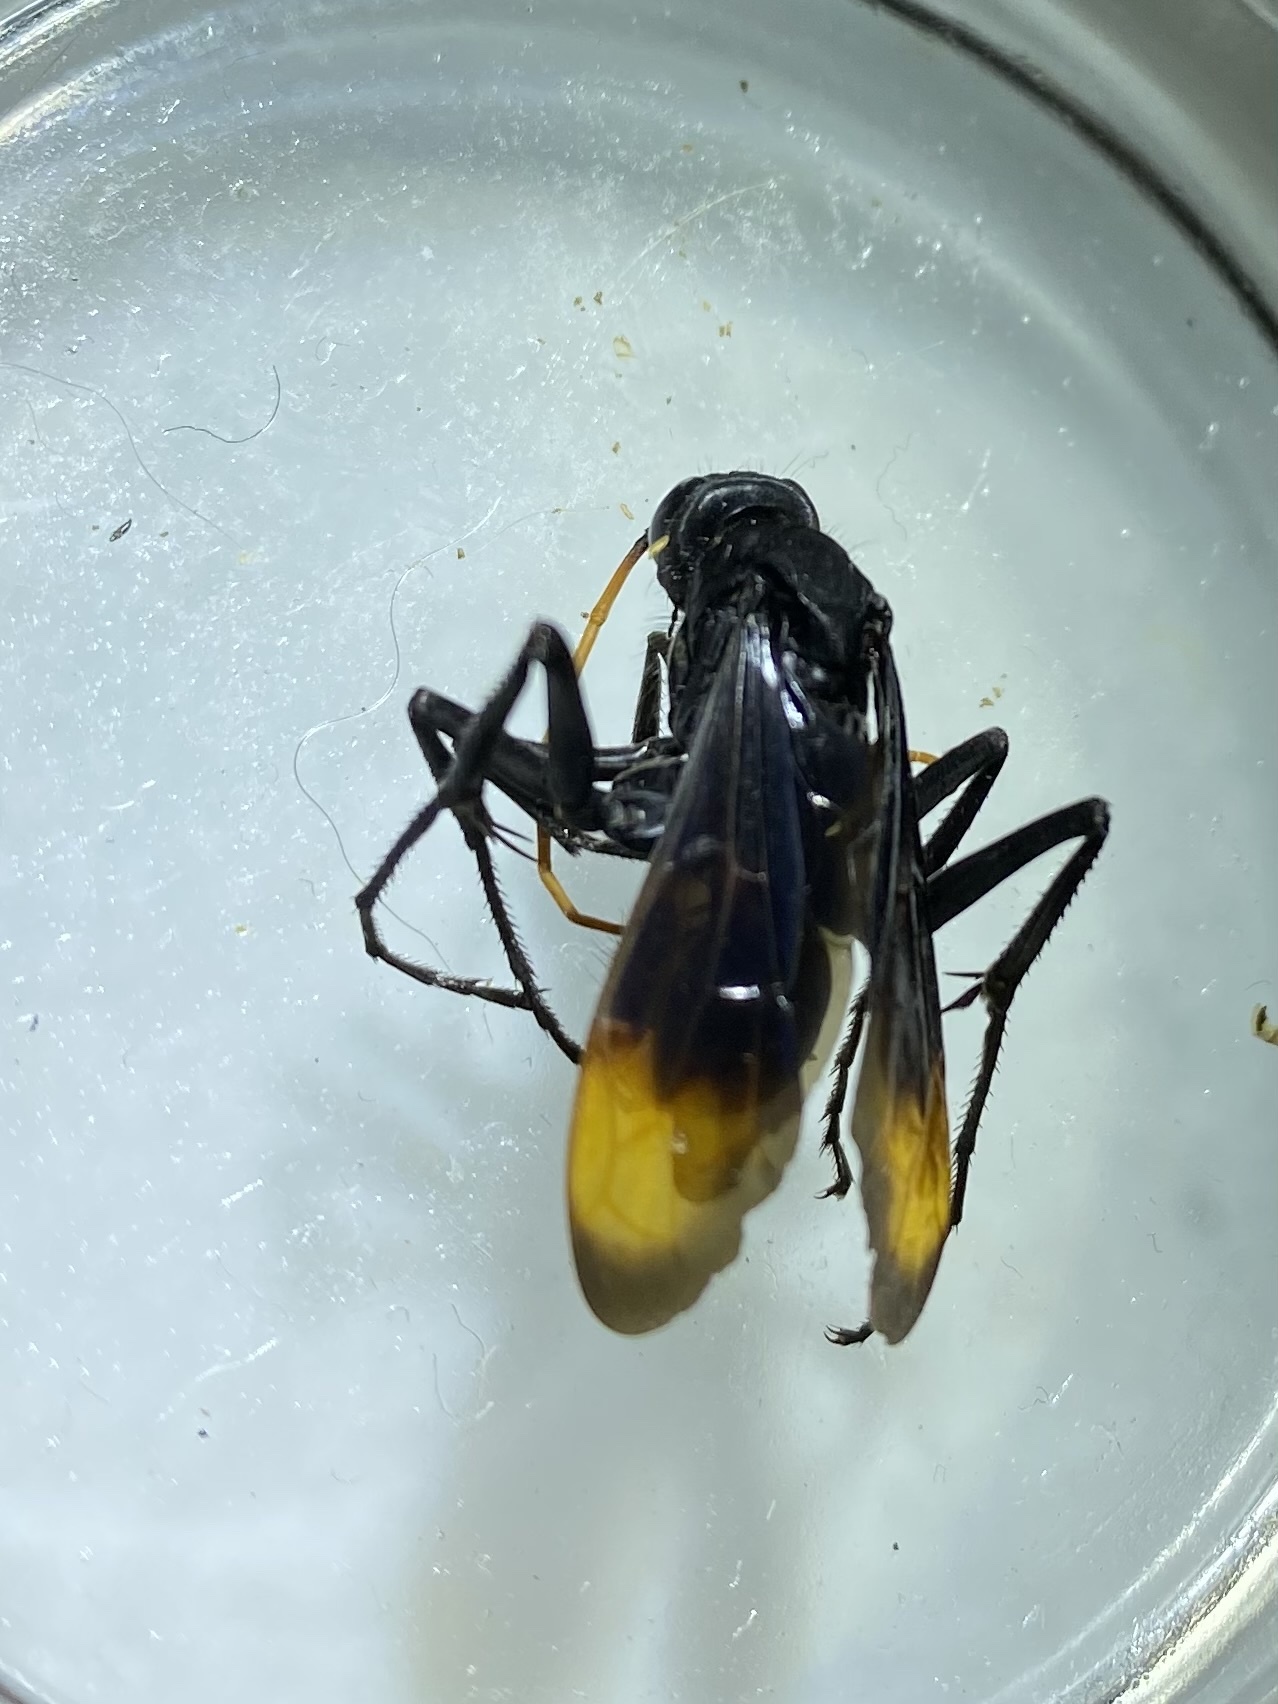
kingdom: Animalia
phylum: Arthropoda
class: Insecta
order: Hymenoptera
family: Pompilidae
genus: Entypus
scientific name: Entypus unifasciatus
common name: Eastern tawny-horned spider wasp
